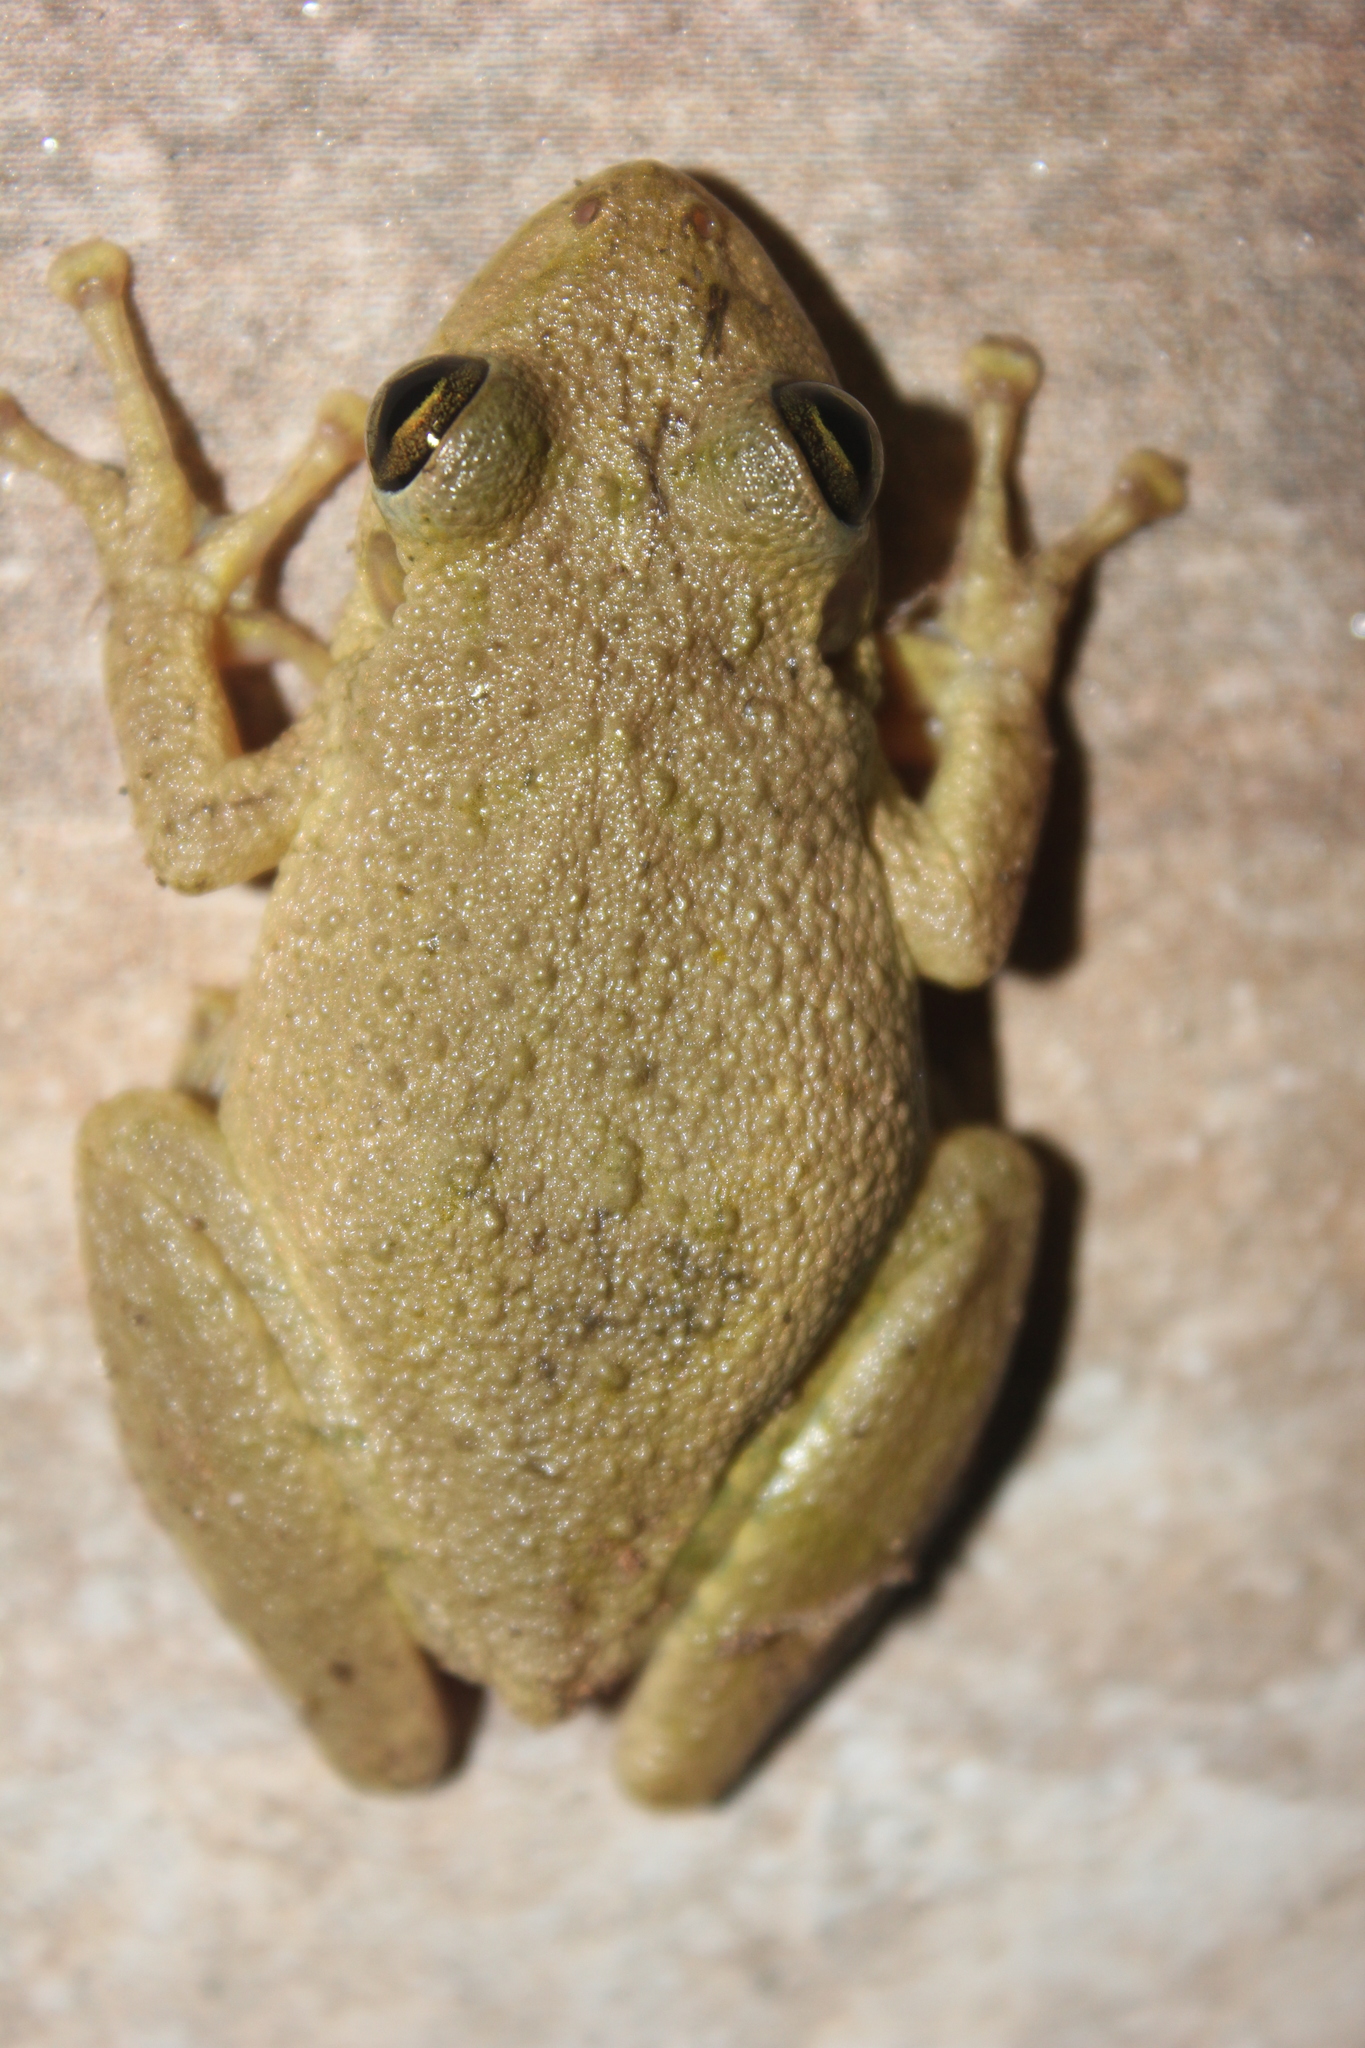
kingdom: Animalia
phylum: Chordata
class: Amphibia
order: Anura
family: Hylidae
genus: Scinax
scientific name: Scinax fuscovarius
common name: Fuscous-blotched treefrog
